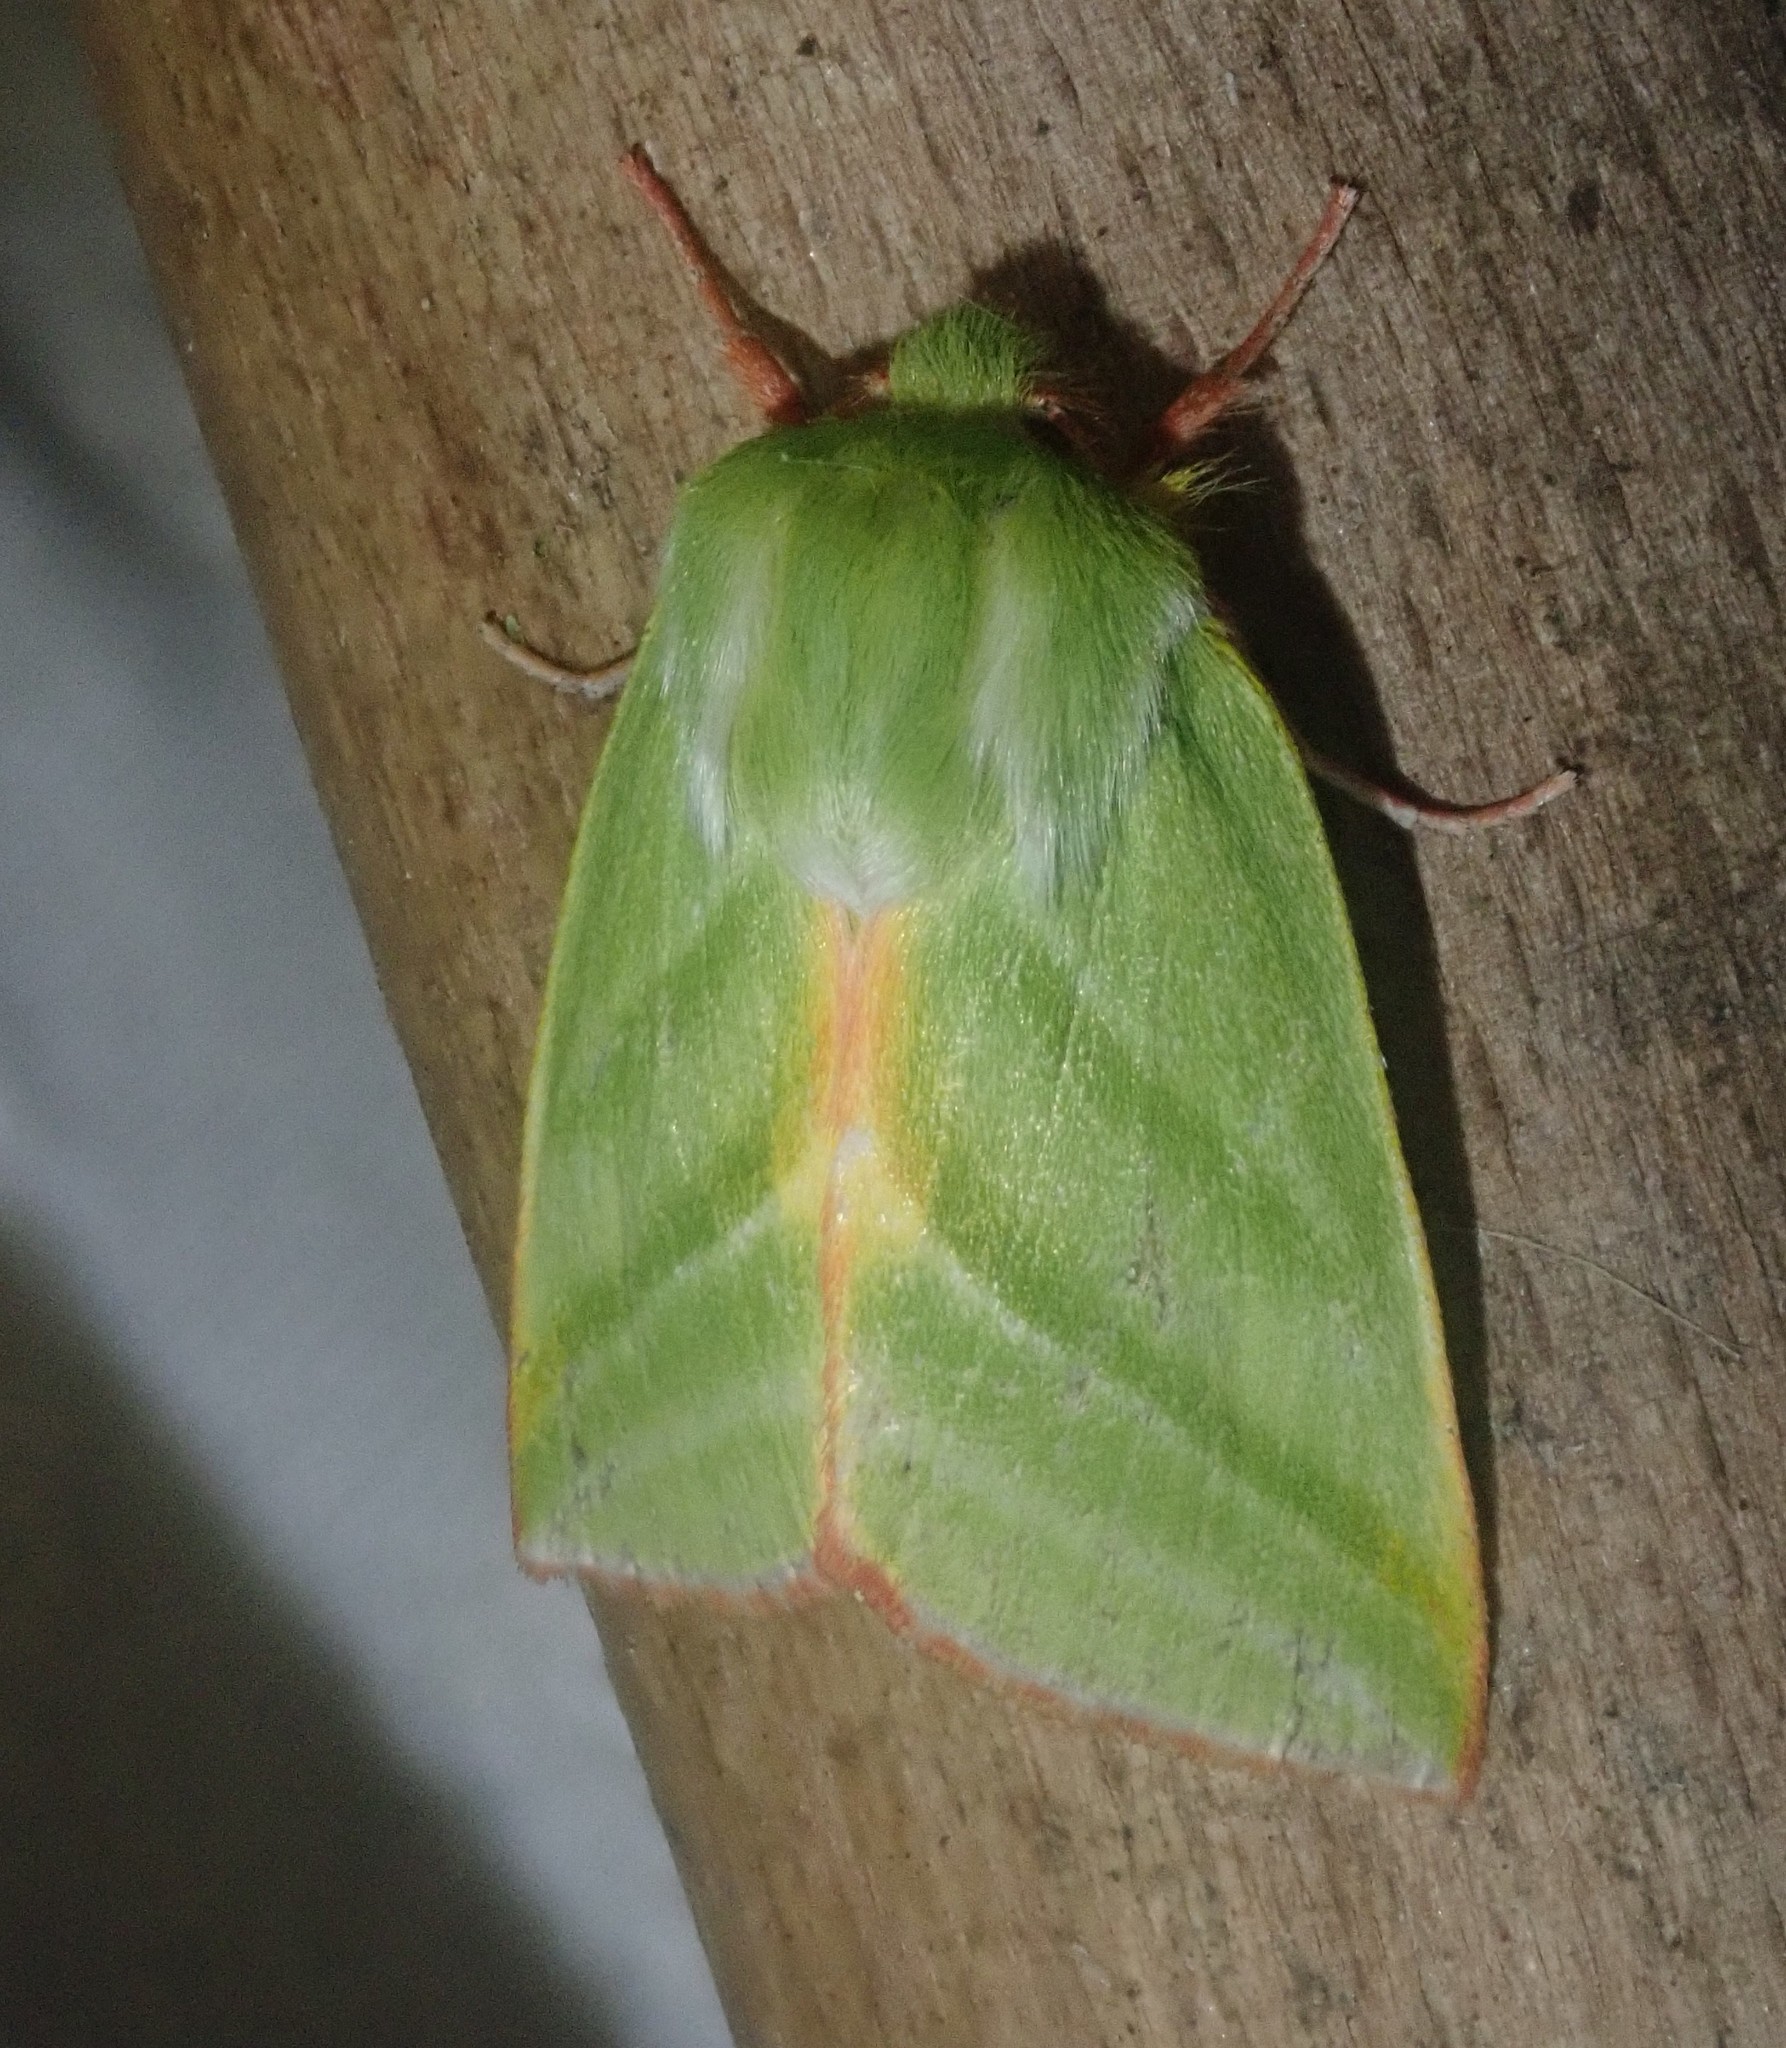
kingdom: Animalia
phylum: Arthropoda
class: Insecta
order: Lepidoptera
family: Nolidae
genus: Pseudoips
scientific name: Pseudoips prasinana
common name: Green silver-lines
